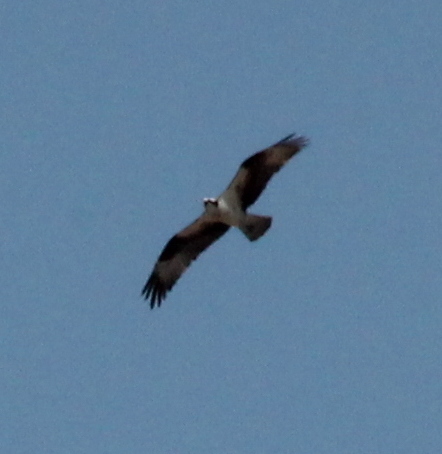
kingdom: Animalia
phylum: Chordata
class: Aves
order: Accipitriformes
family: Pandionidae
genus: Pandion
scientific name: Pandion haliaetus
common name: Osprey
